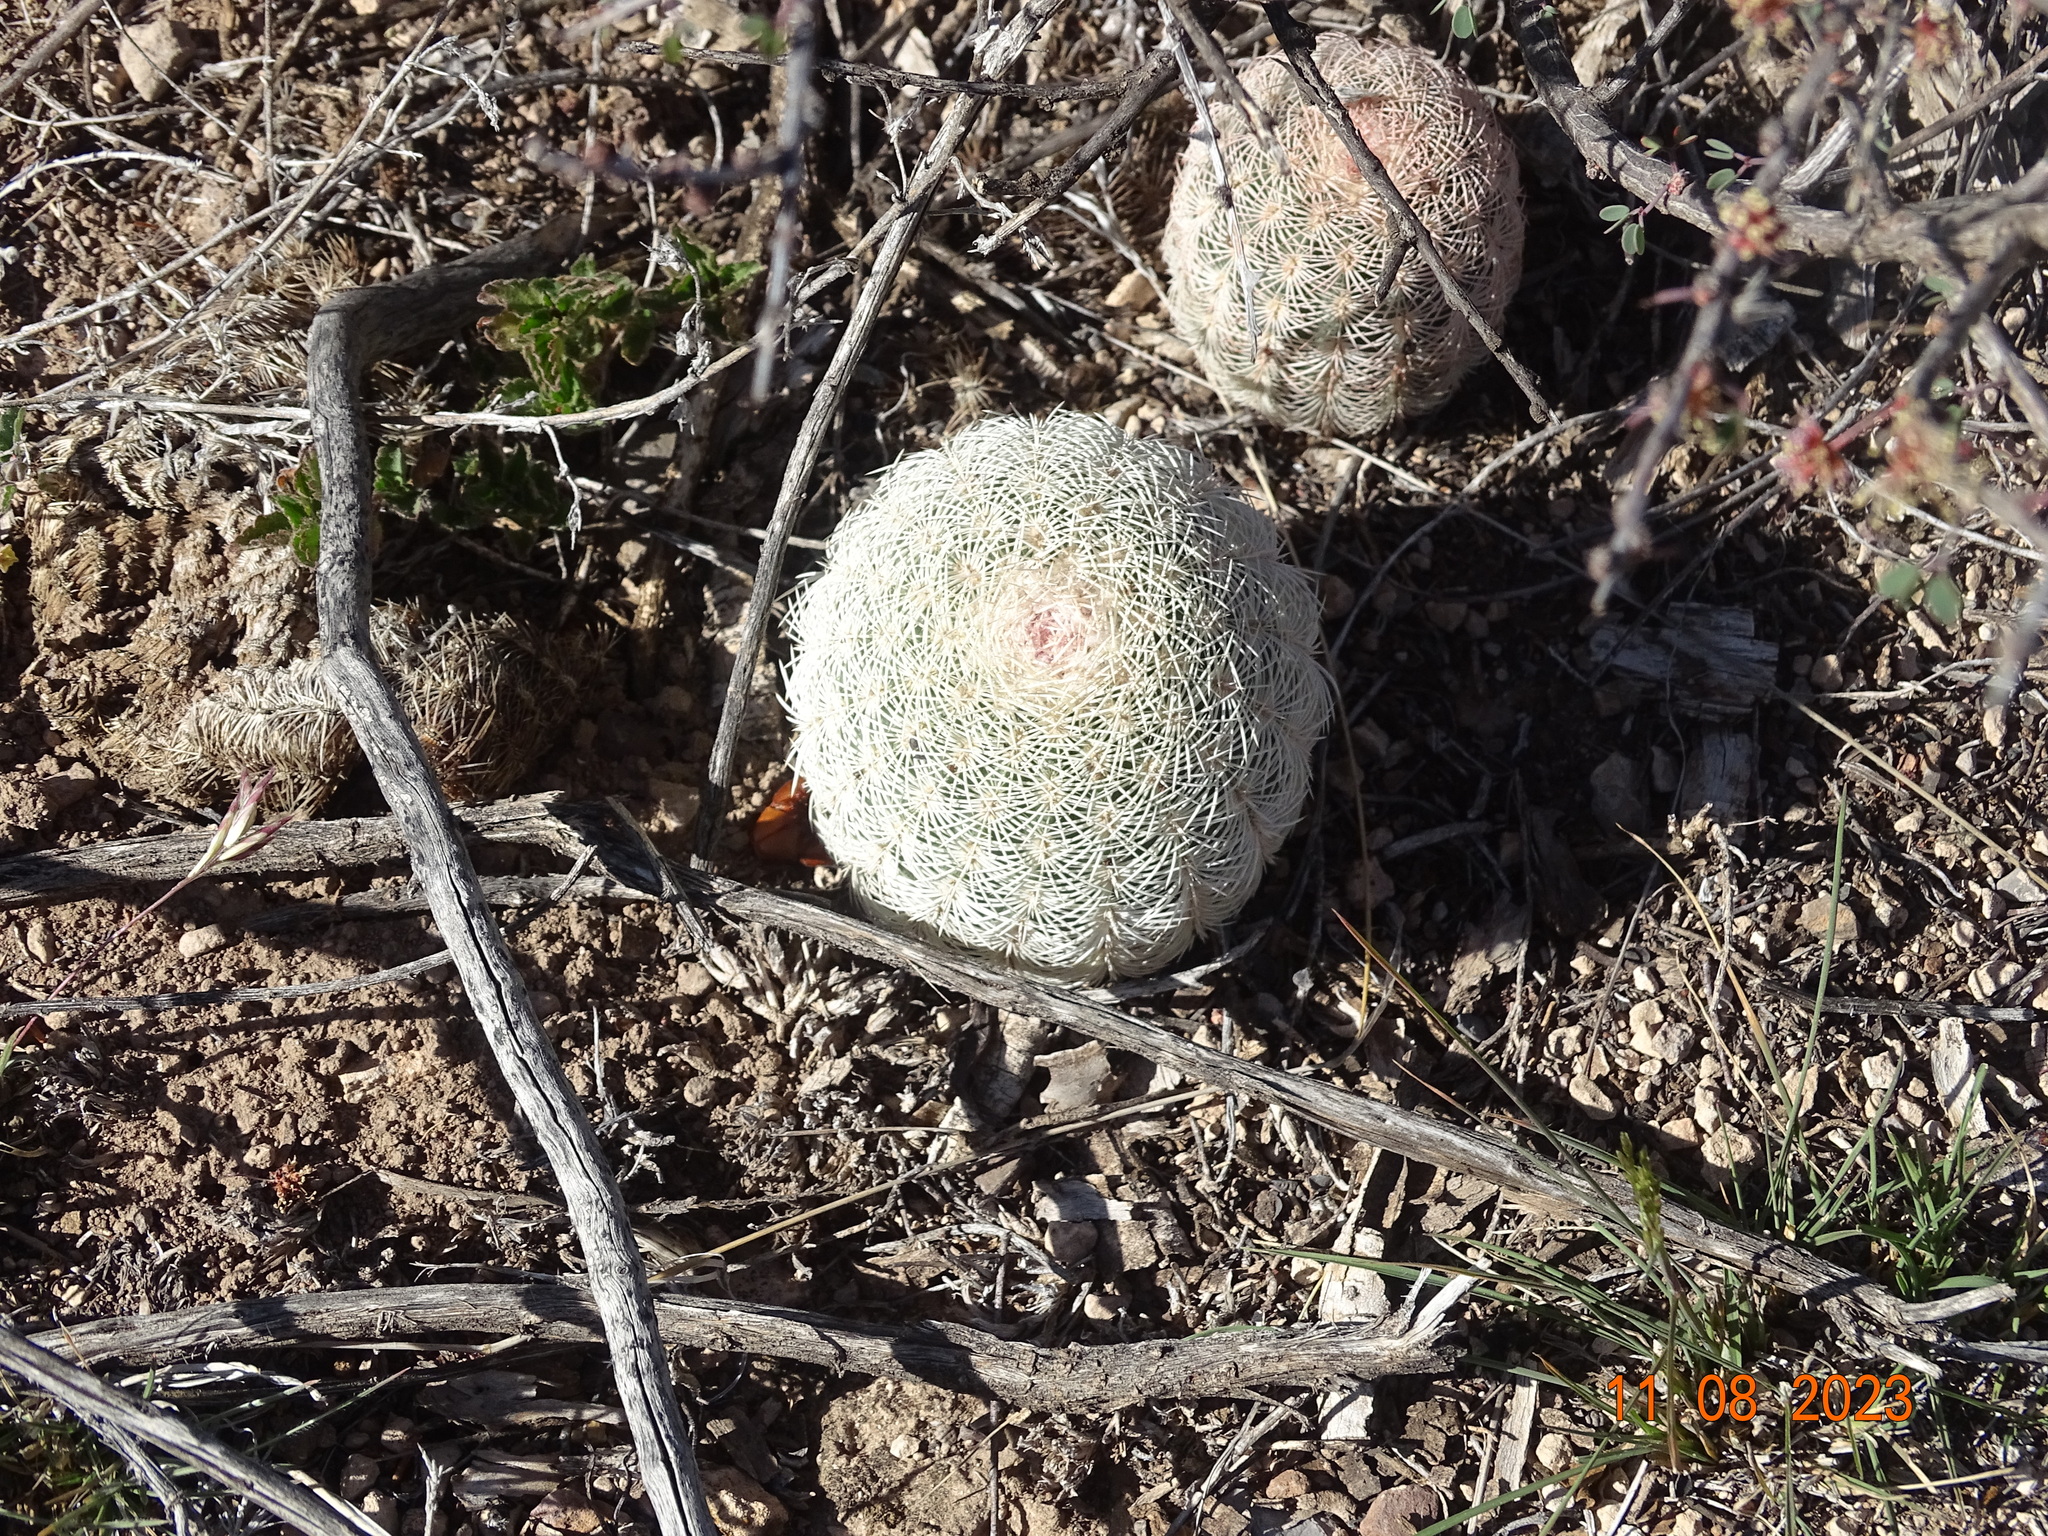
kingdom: Plantae
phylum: Tracheophyta
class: Magnoliopsida
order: Caryophyllales
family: Cactaceae
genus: Echinocereus
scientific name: Echinocereus pectinatus
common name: Rainbow cactus
